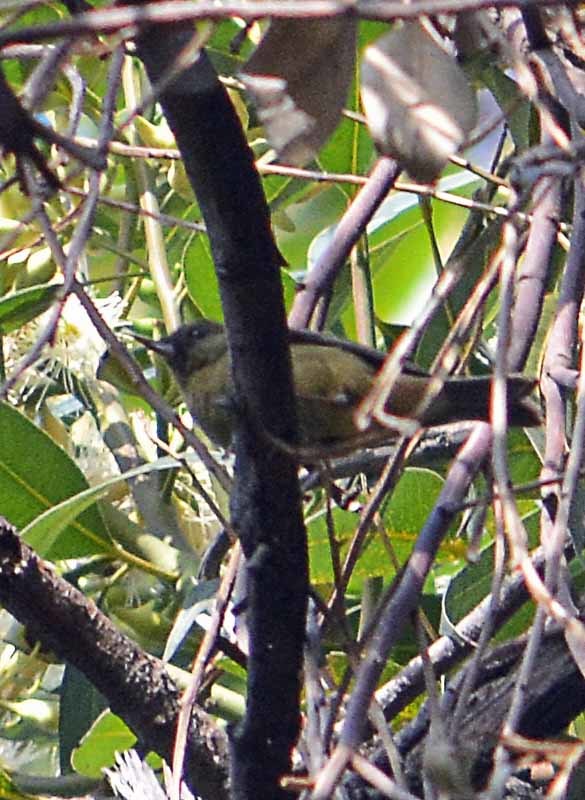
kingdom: Animalia
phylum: Chordata
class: Aves
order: Passeriformes
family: Thraupidae
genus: Diglossa
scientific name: Diglossa baritula
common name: Cinnamon-bellied flowerpiercer
